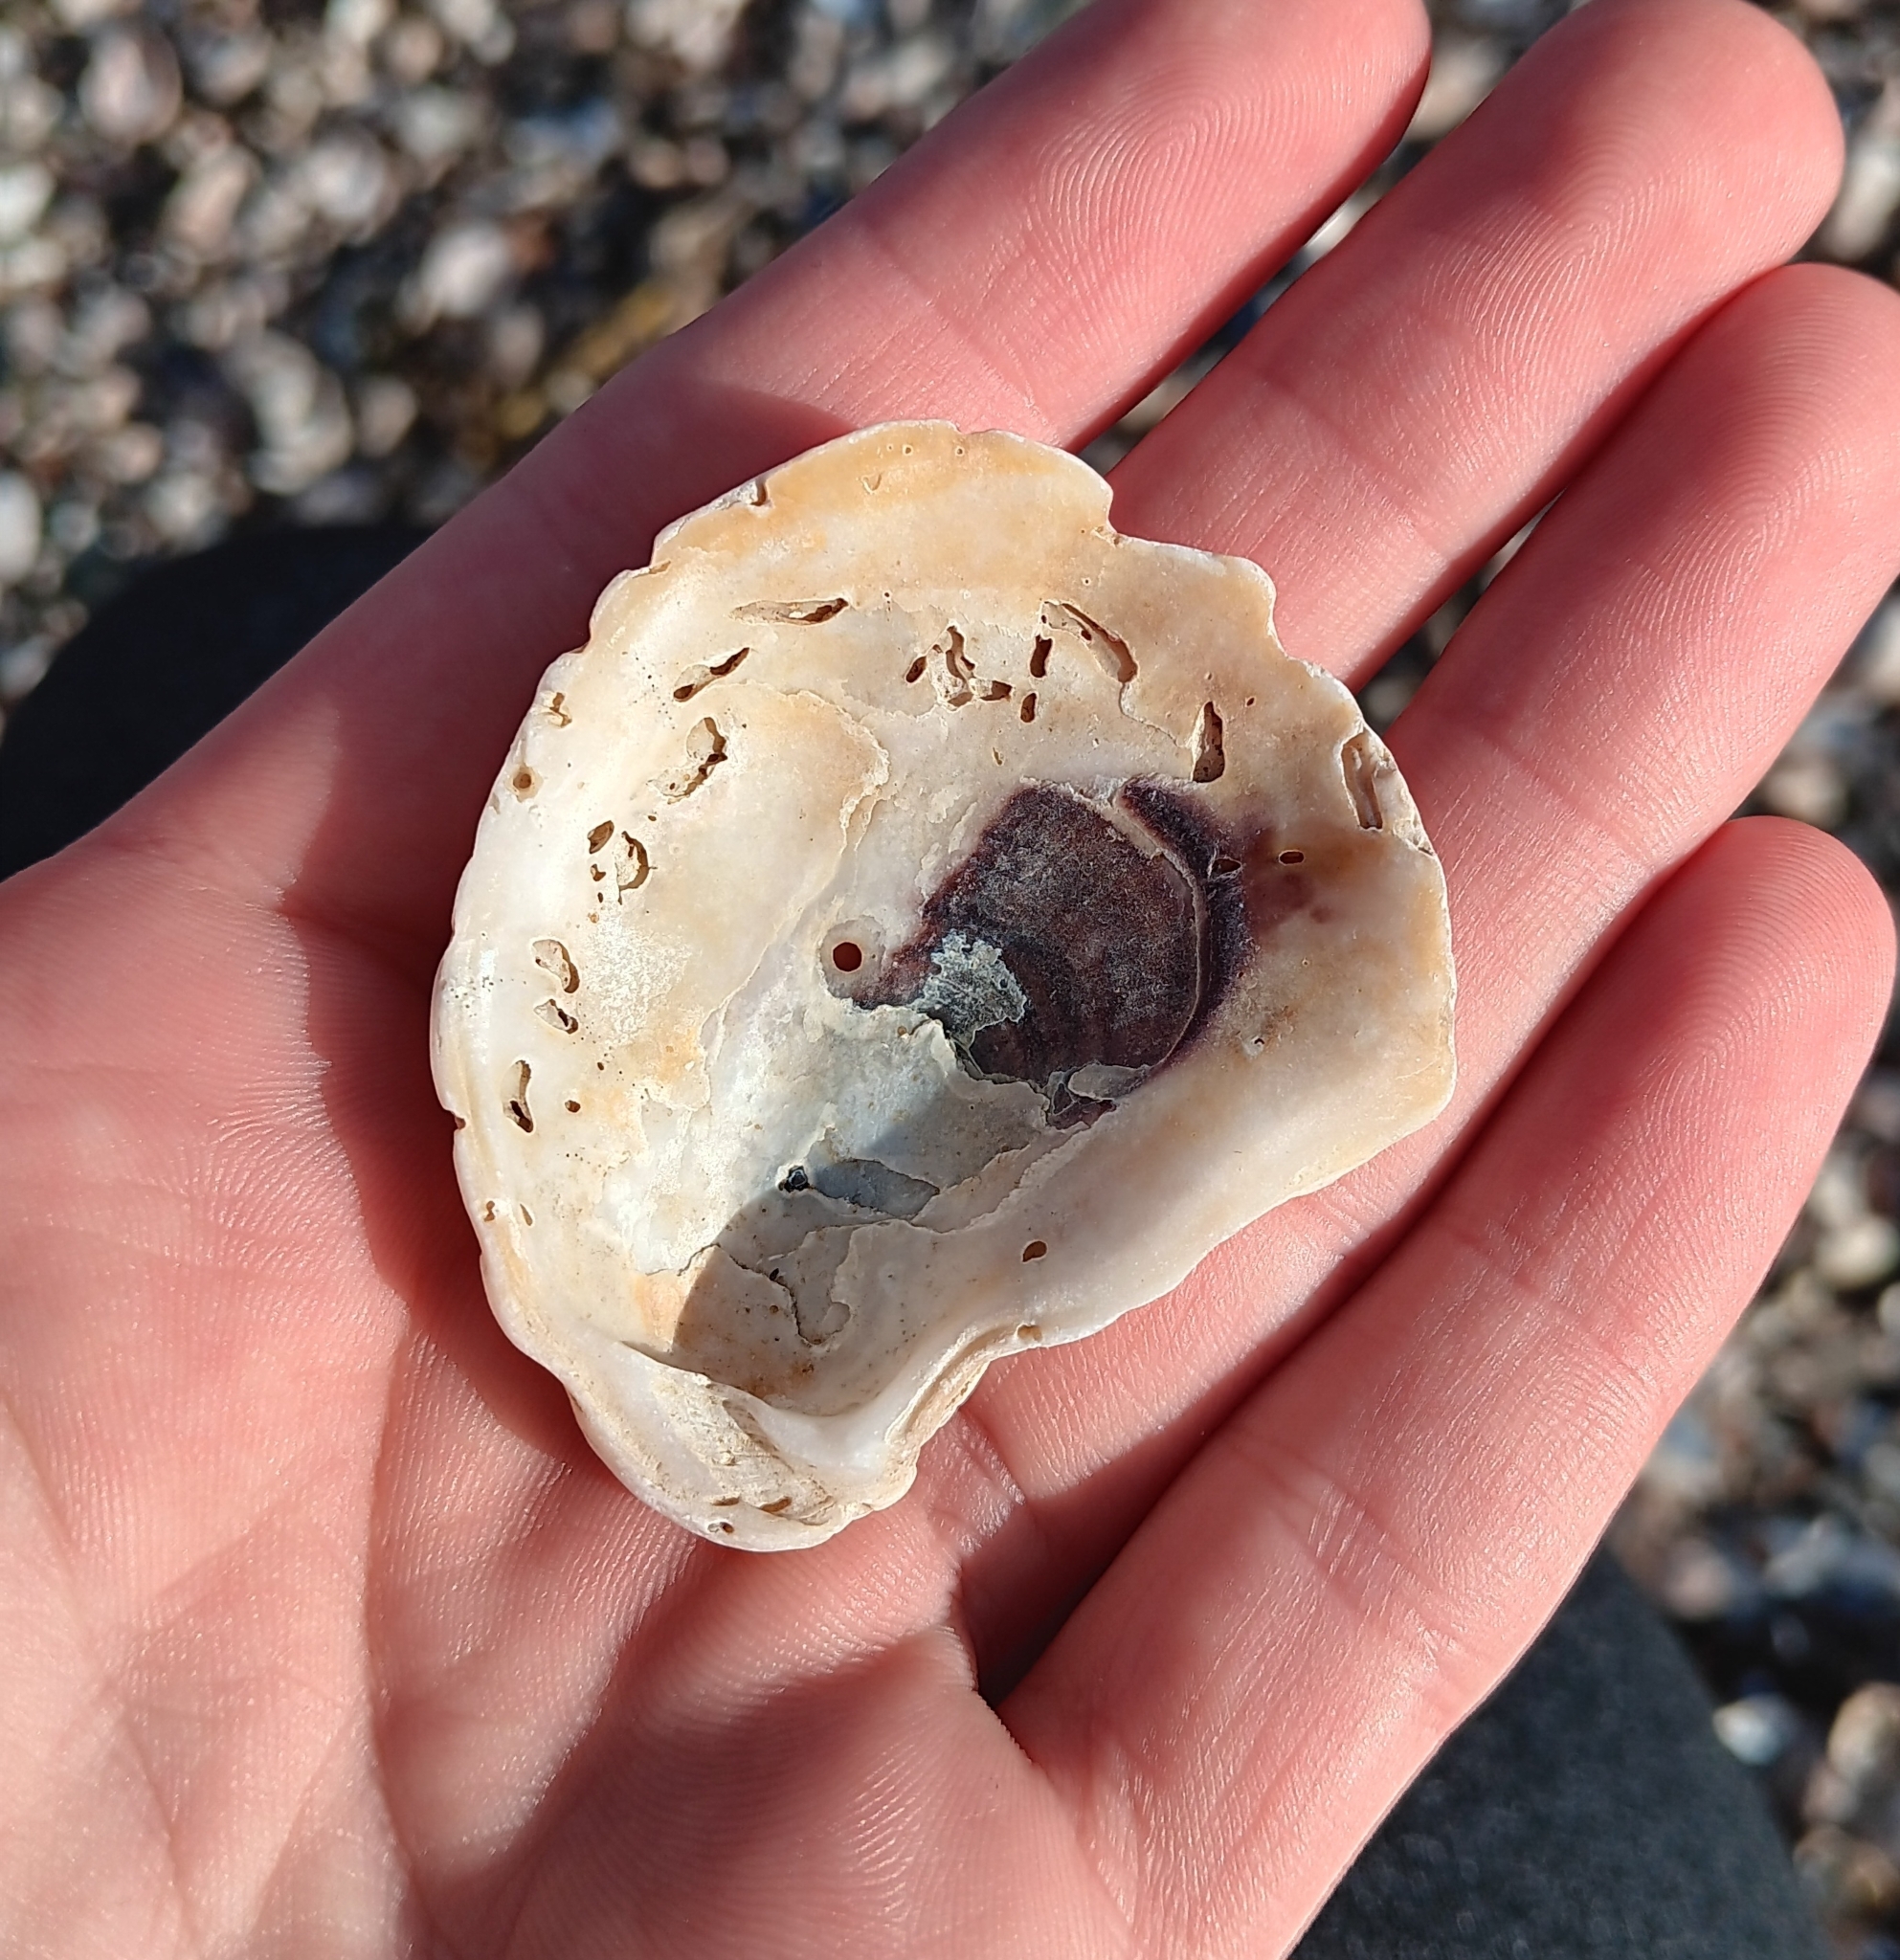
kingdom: Animalia
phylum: Mollusca
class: Bivalvia
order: Ostreida
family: Ostreidae
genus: Crassostrea
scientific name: Crassostrea virginica
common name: American oyster
